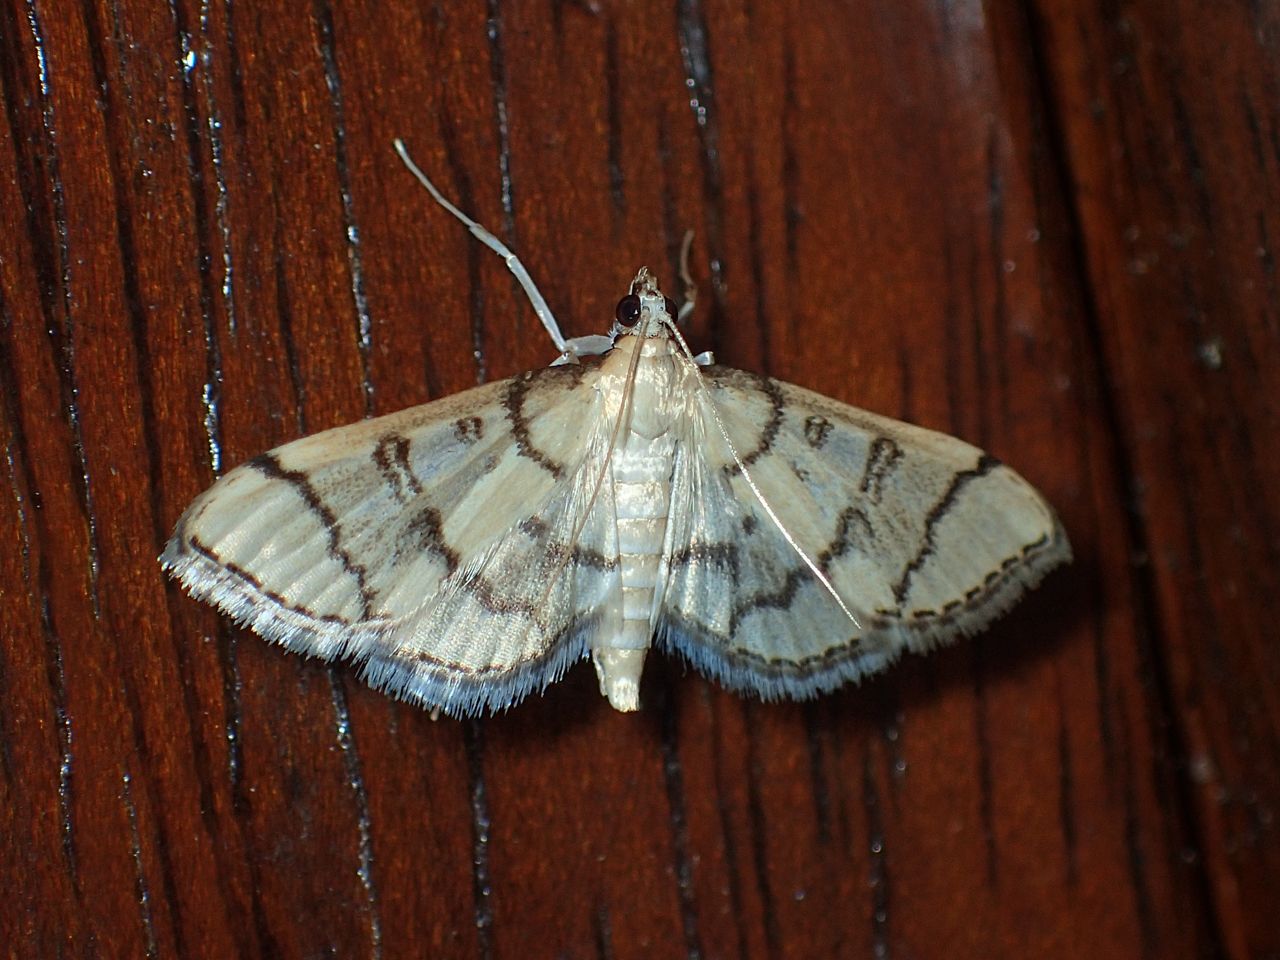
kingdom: Animalia
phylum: Arthropoda
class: Insecta
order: Lepidoptera
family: Crambidae
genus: Lamprosema
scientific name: Lamprosema Blepharomastix ranalis
